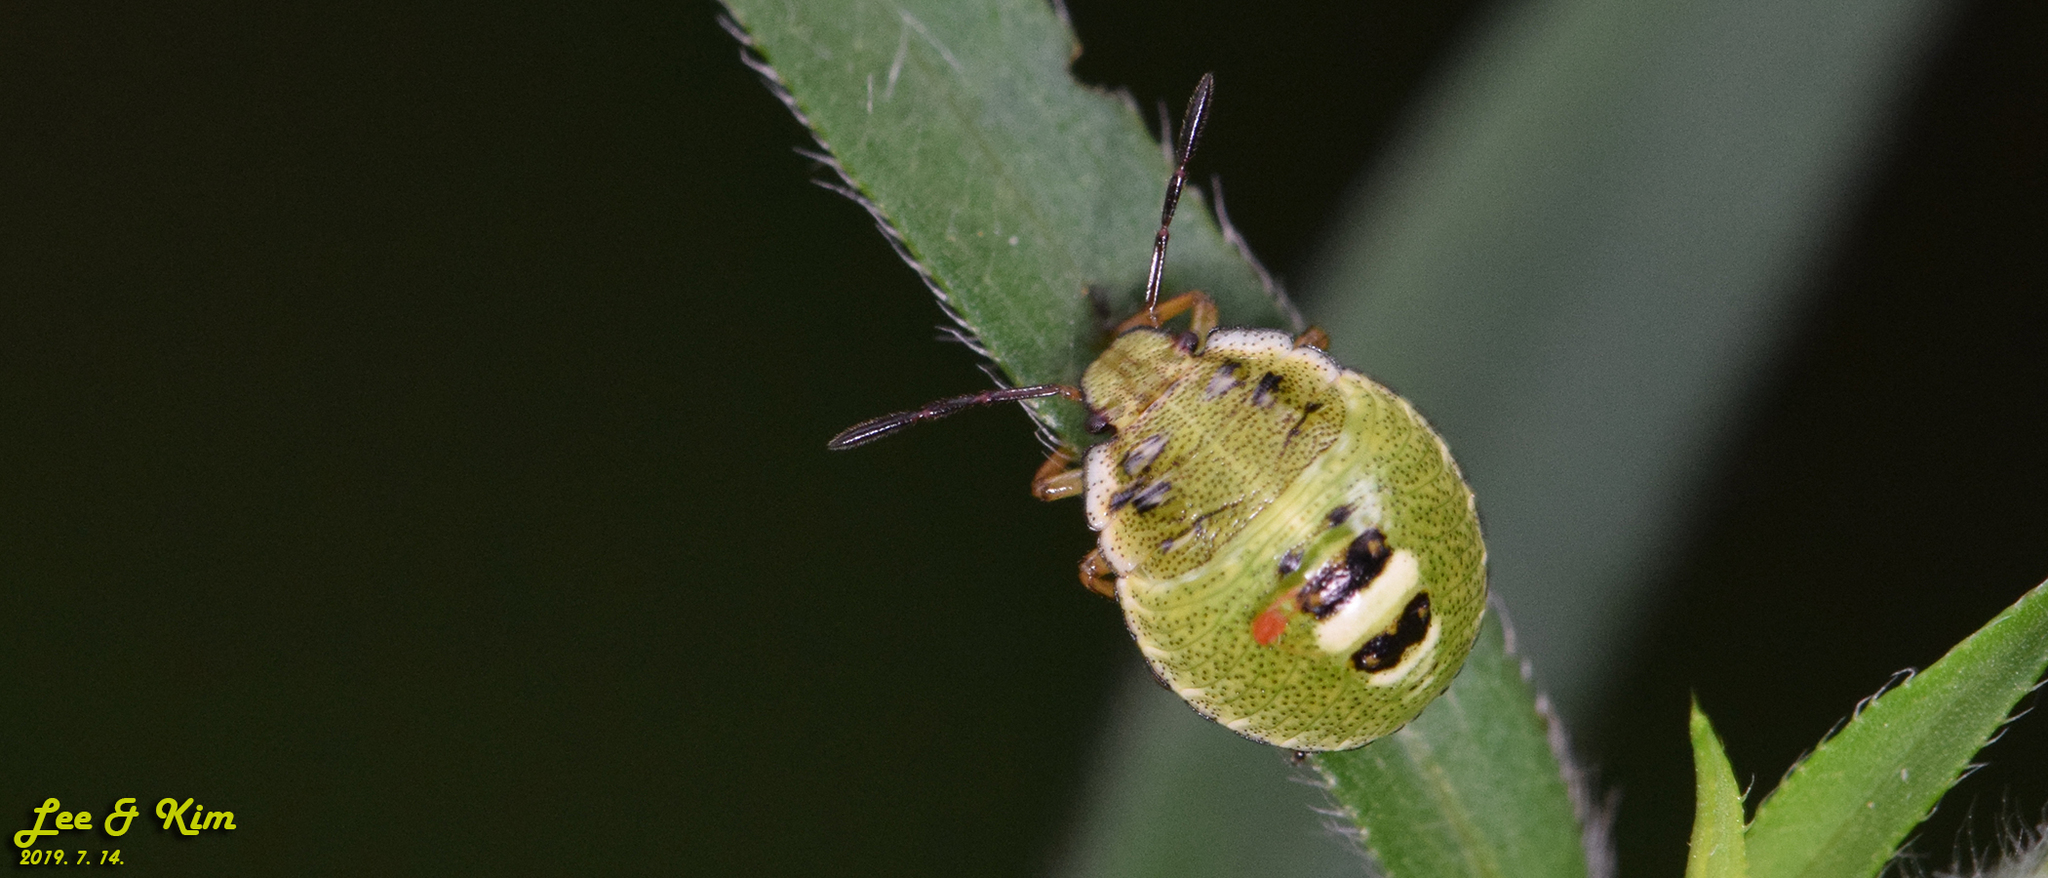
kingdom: Animalia
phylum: Arthropoda
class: Insecta
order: Hemiptera
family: Pentatomidae
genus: Palomena
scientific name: Palomena
